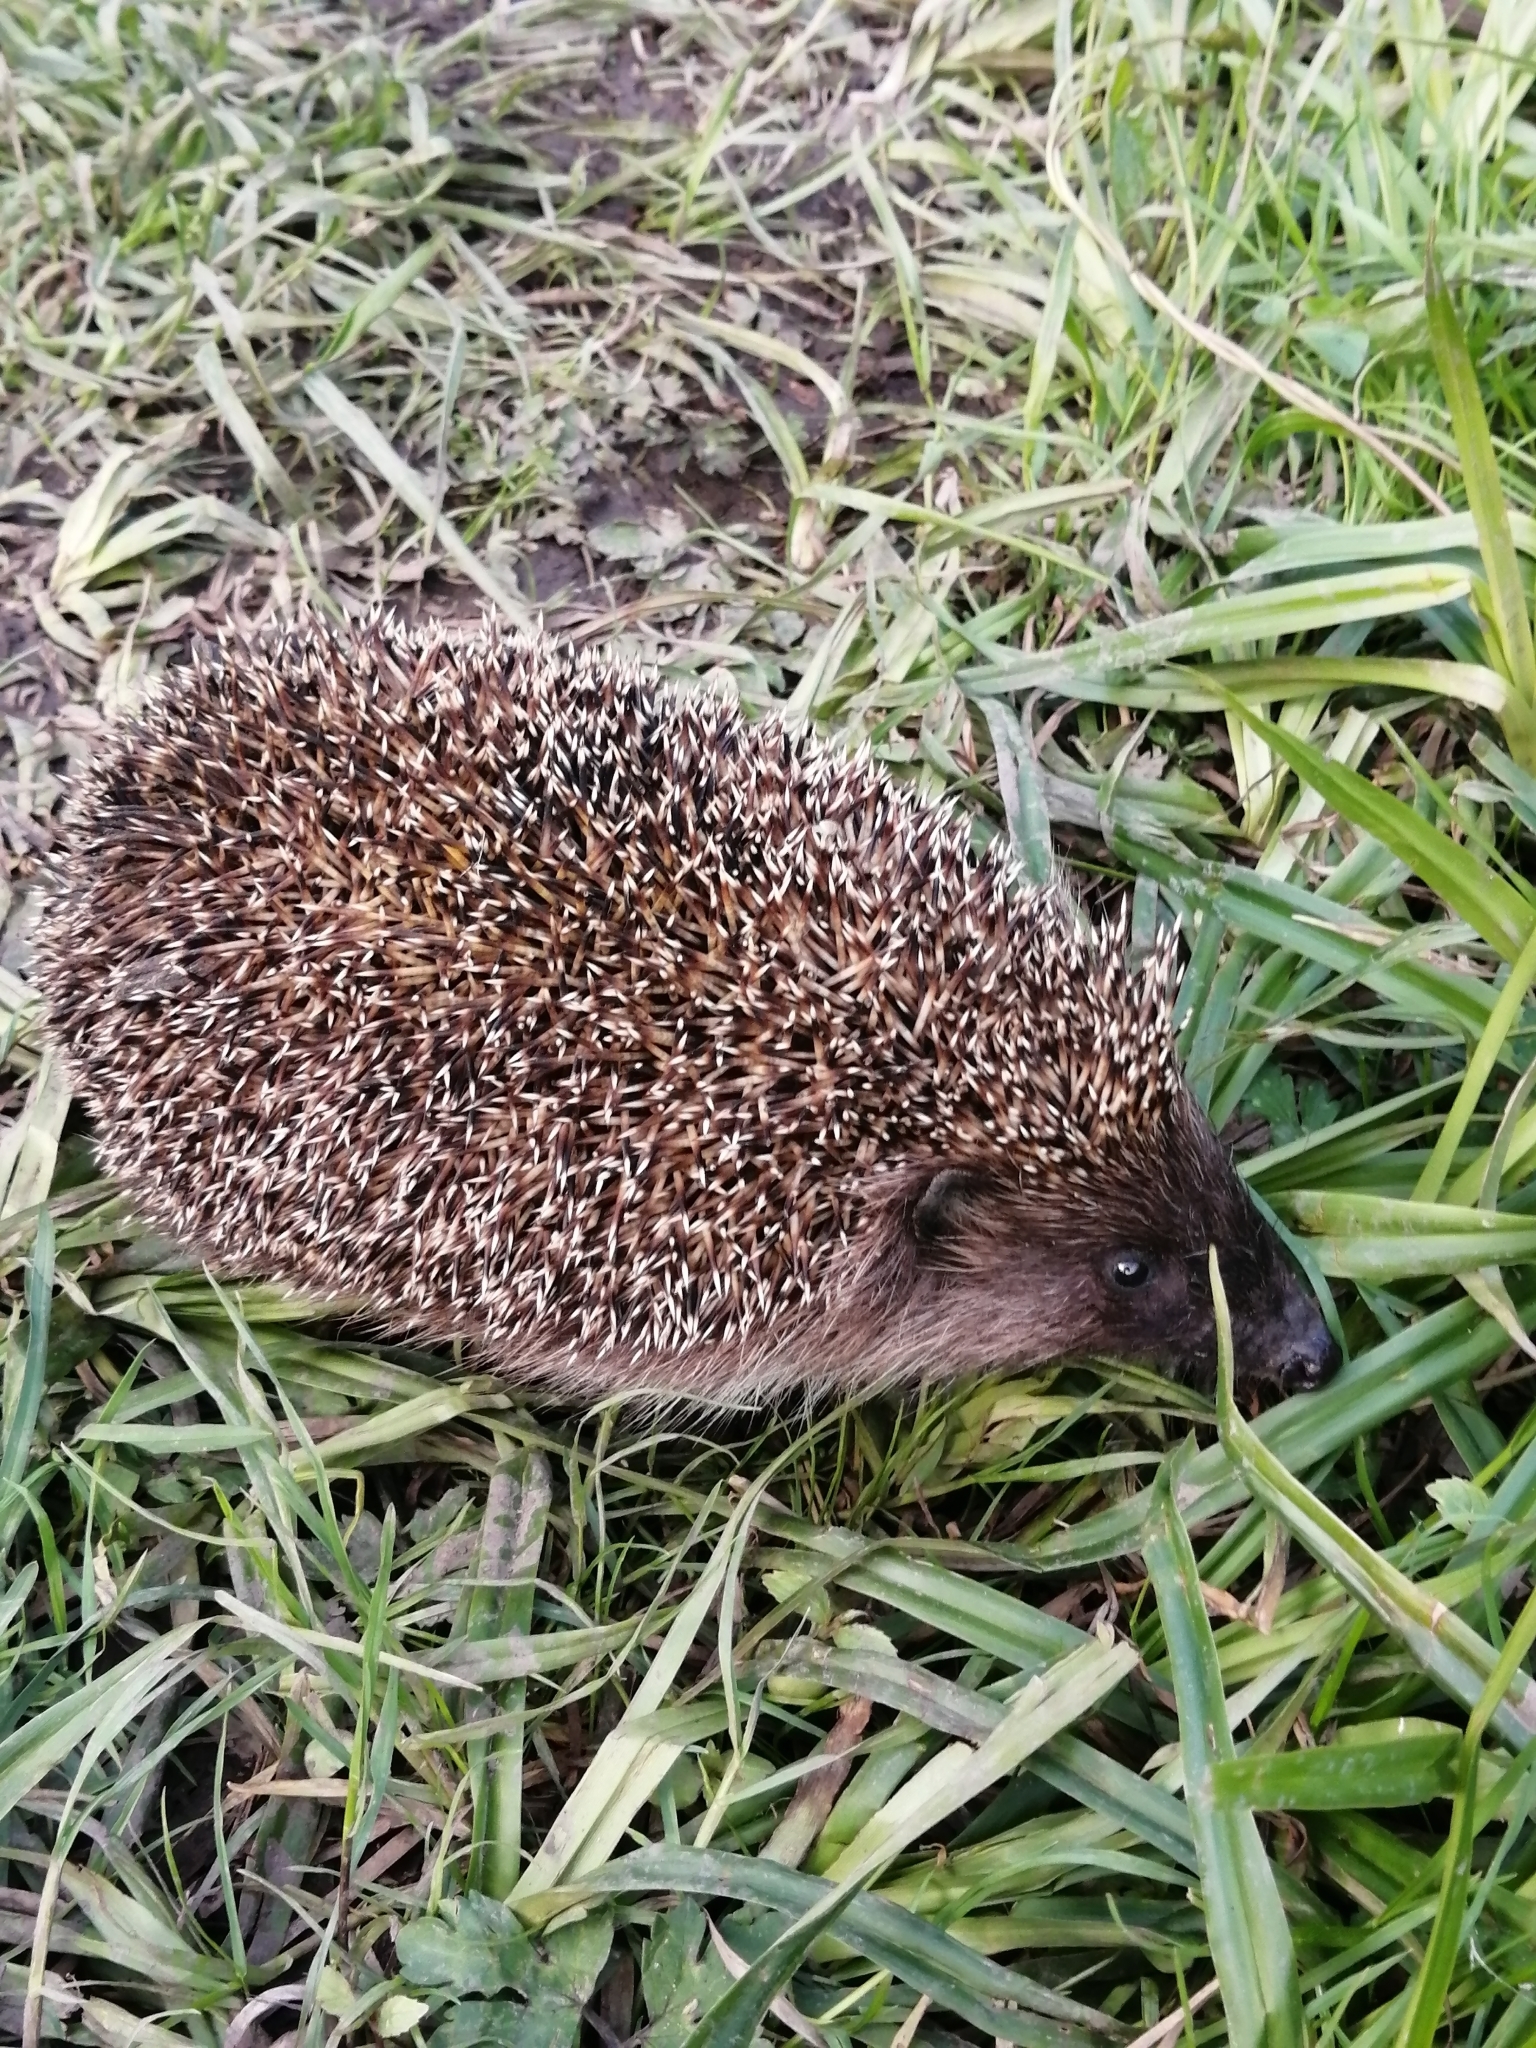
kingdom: Animalia
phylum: Chordata
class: Mammalia
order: Erinaceomorpha
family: Erinaceidae
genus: Erinaceus
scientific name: Erinaceus europaeus
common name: West european hedgehog
